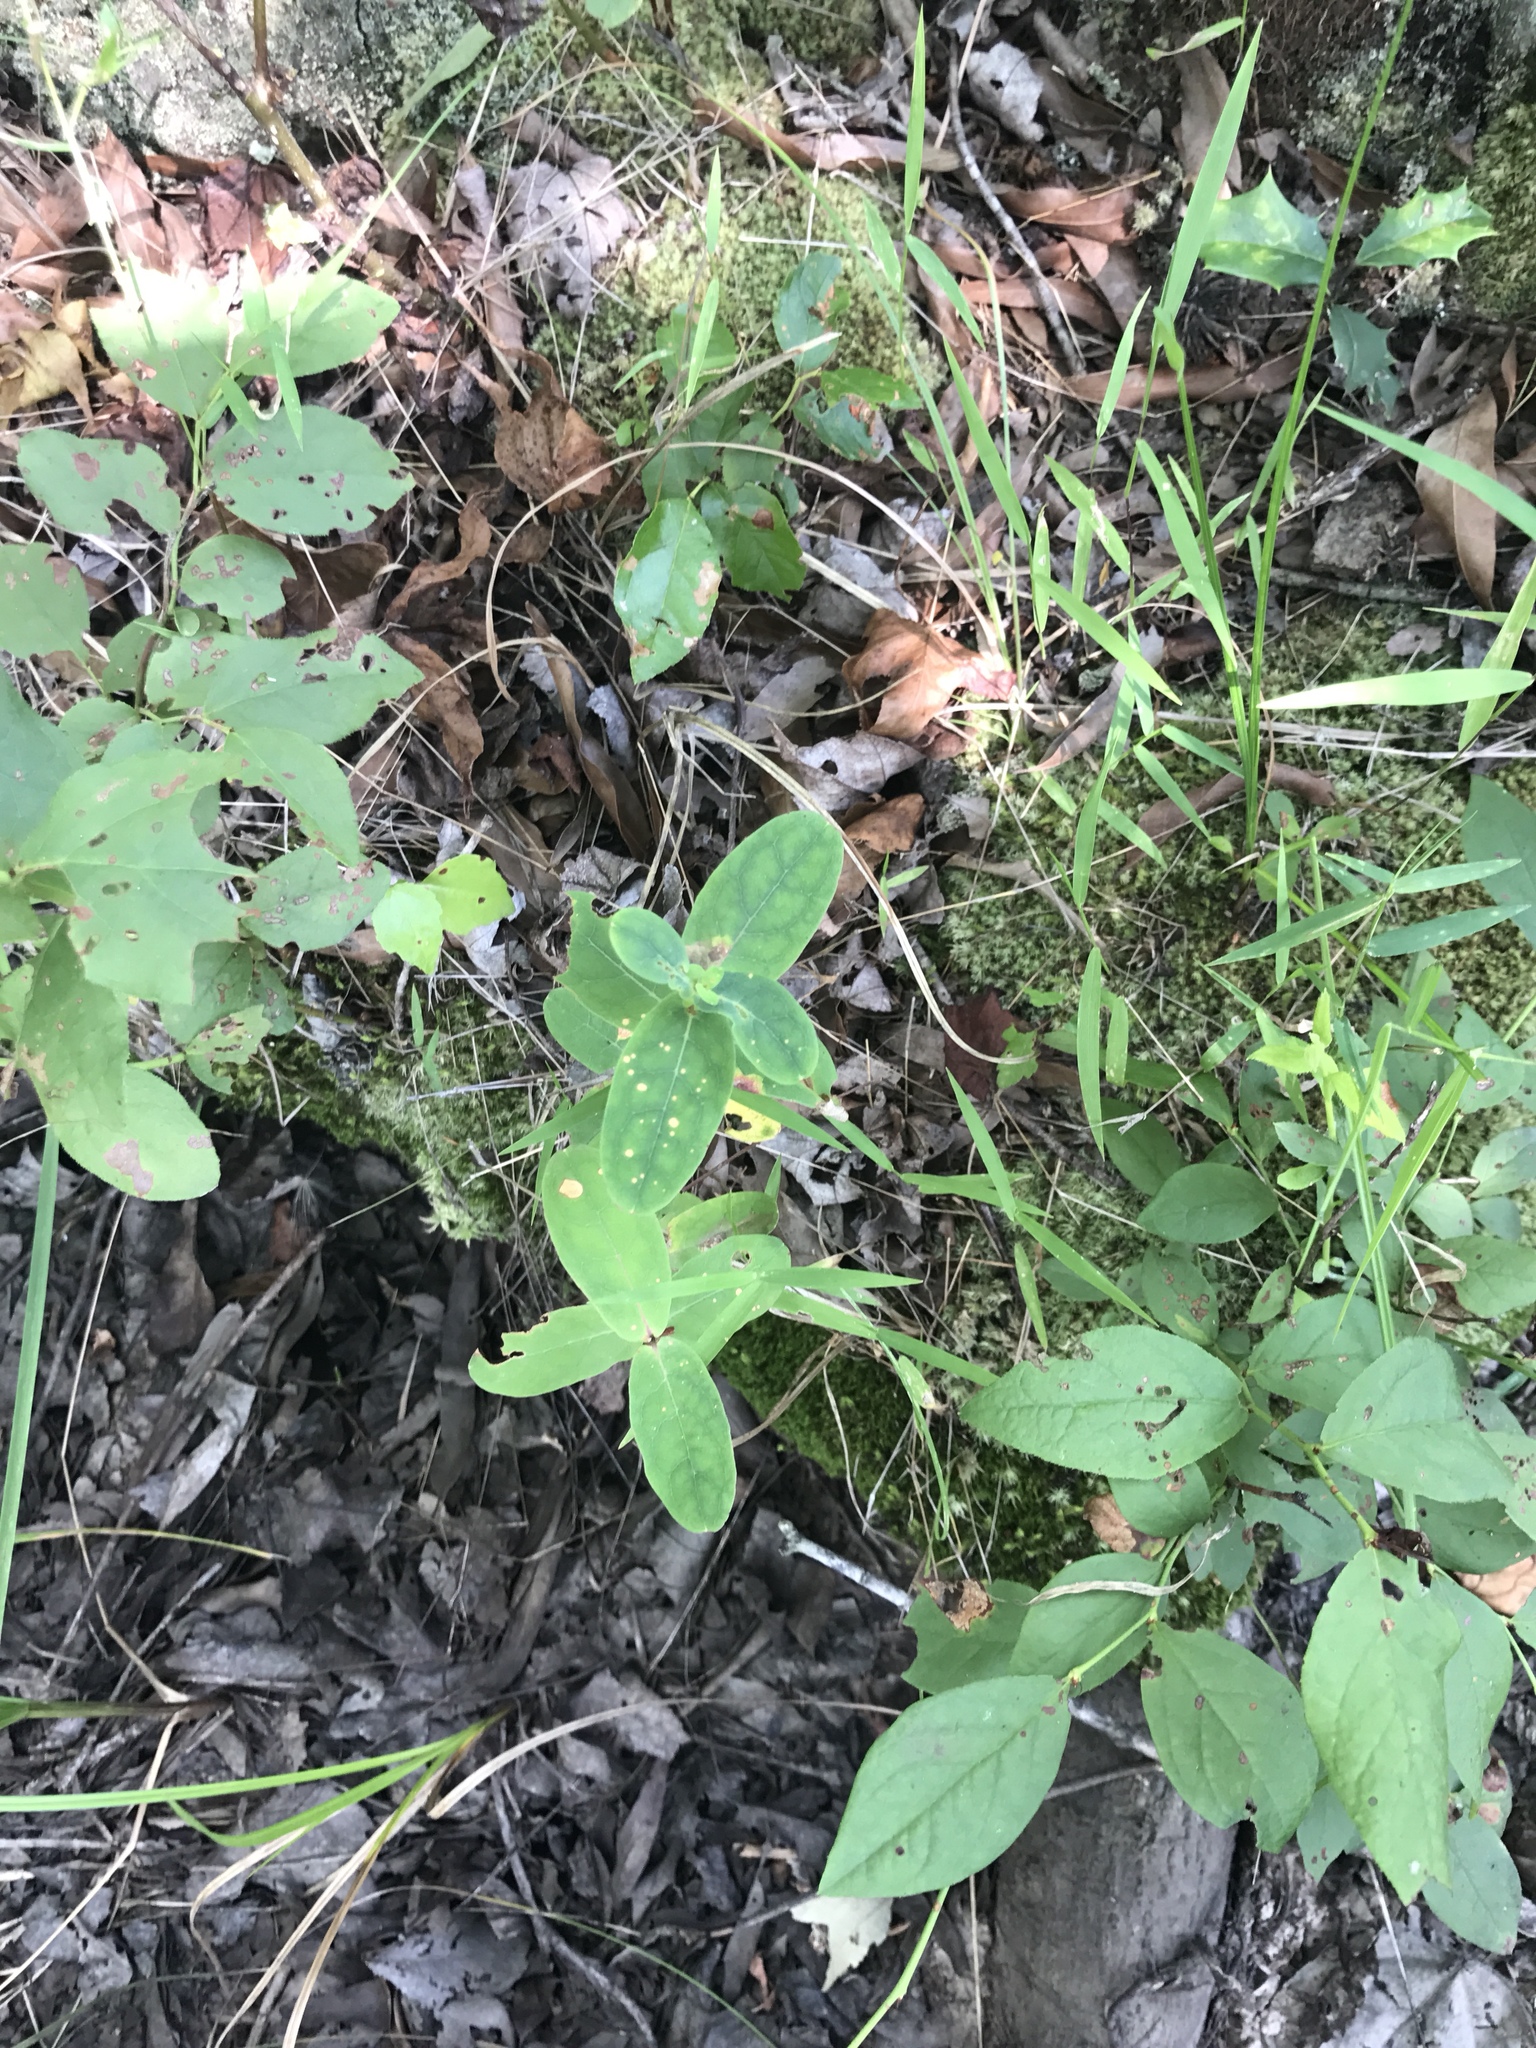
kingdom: Plantae
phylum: Tracheophyta
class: Magnoliopsida
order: Malpighiales
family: Hypericaceae
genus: Triadenum
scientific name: Triadenum virginicum
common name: Marsh st. john's-wort
